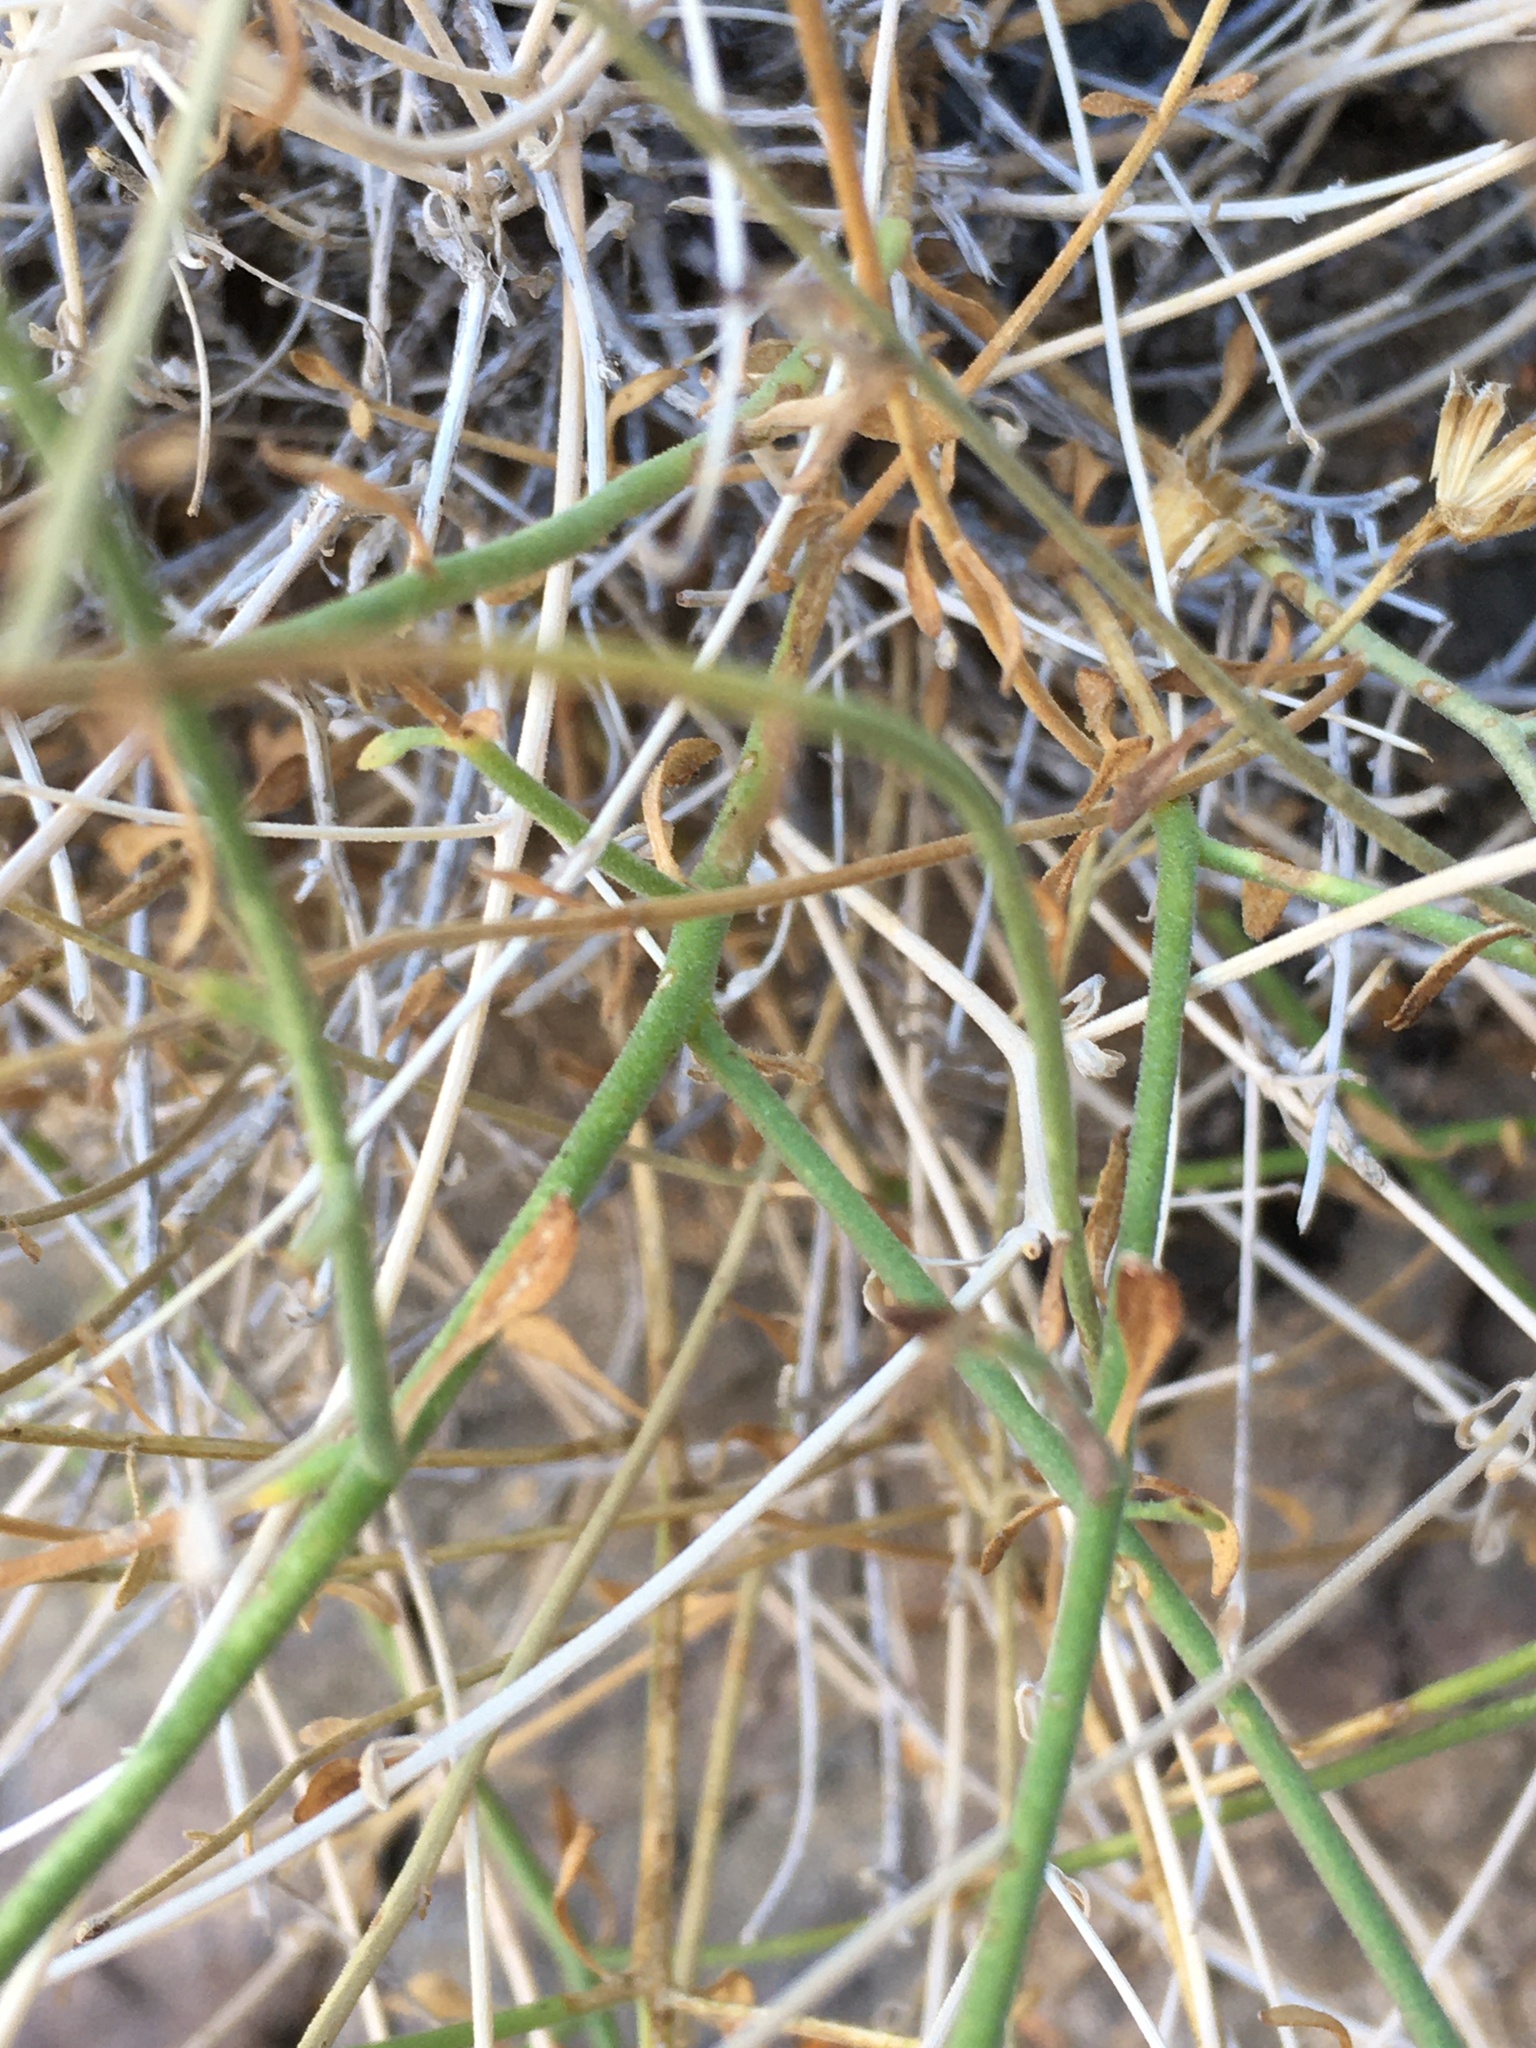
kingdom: Plantae
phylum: Tracheophyta
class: Magnoliopsida
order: Asterales
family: Asteraceae
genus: Laphamia
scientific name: Laphamia megalocephala
